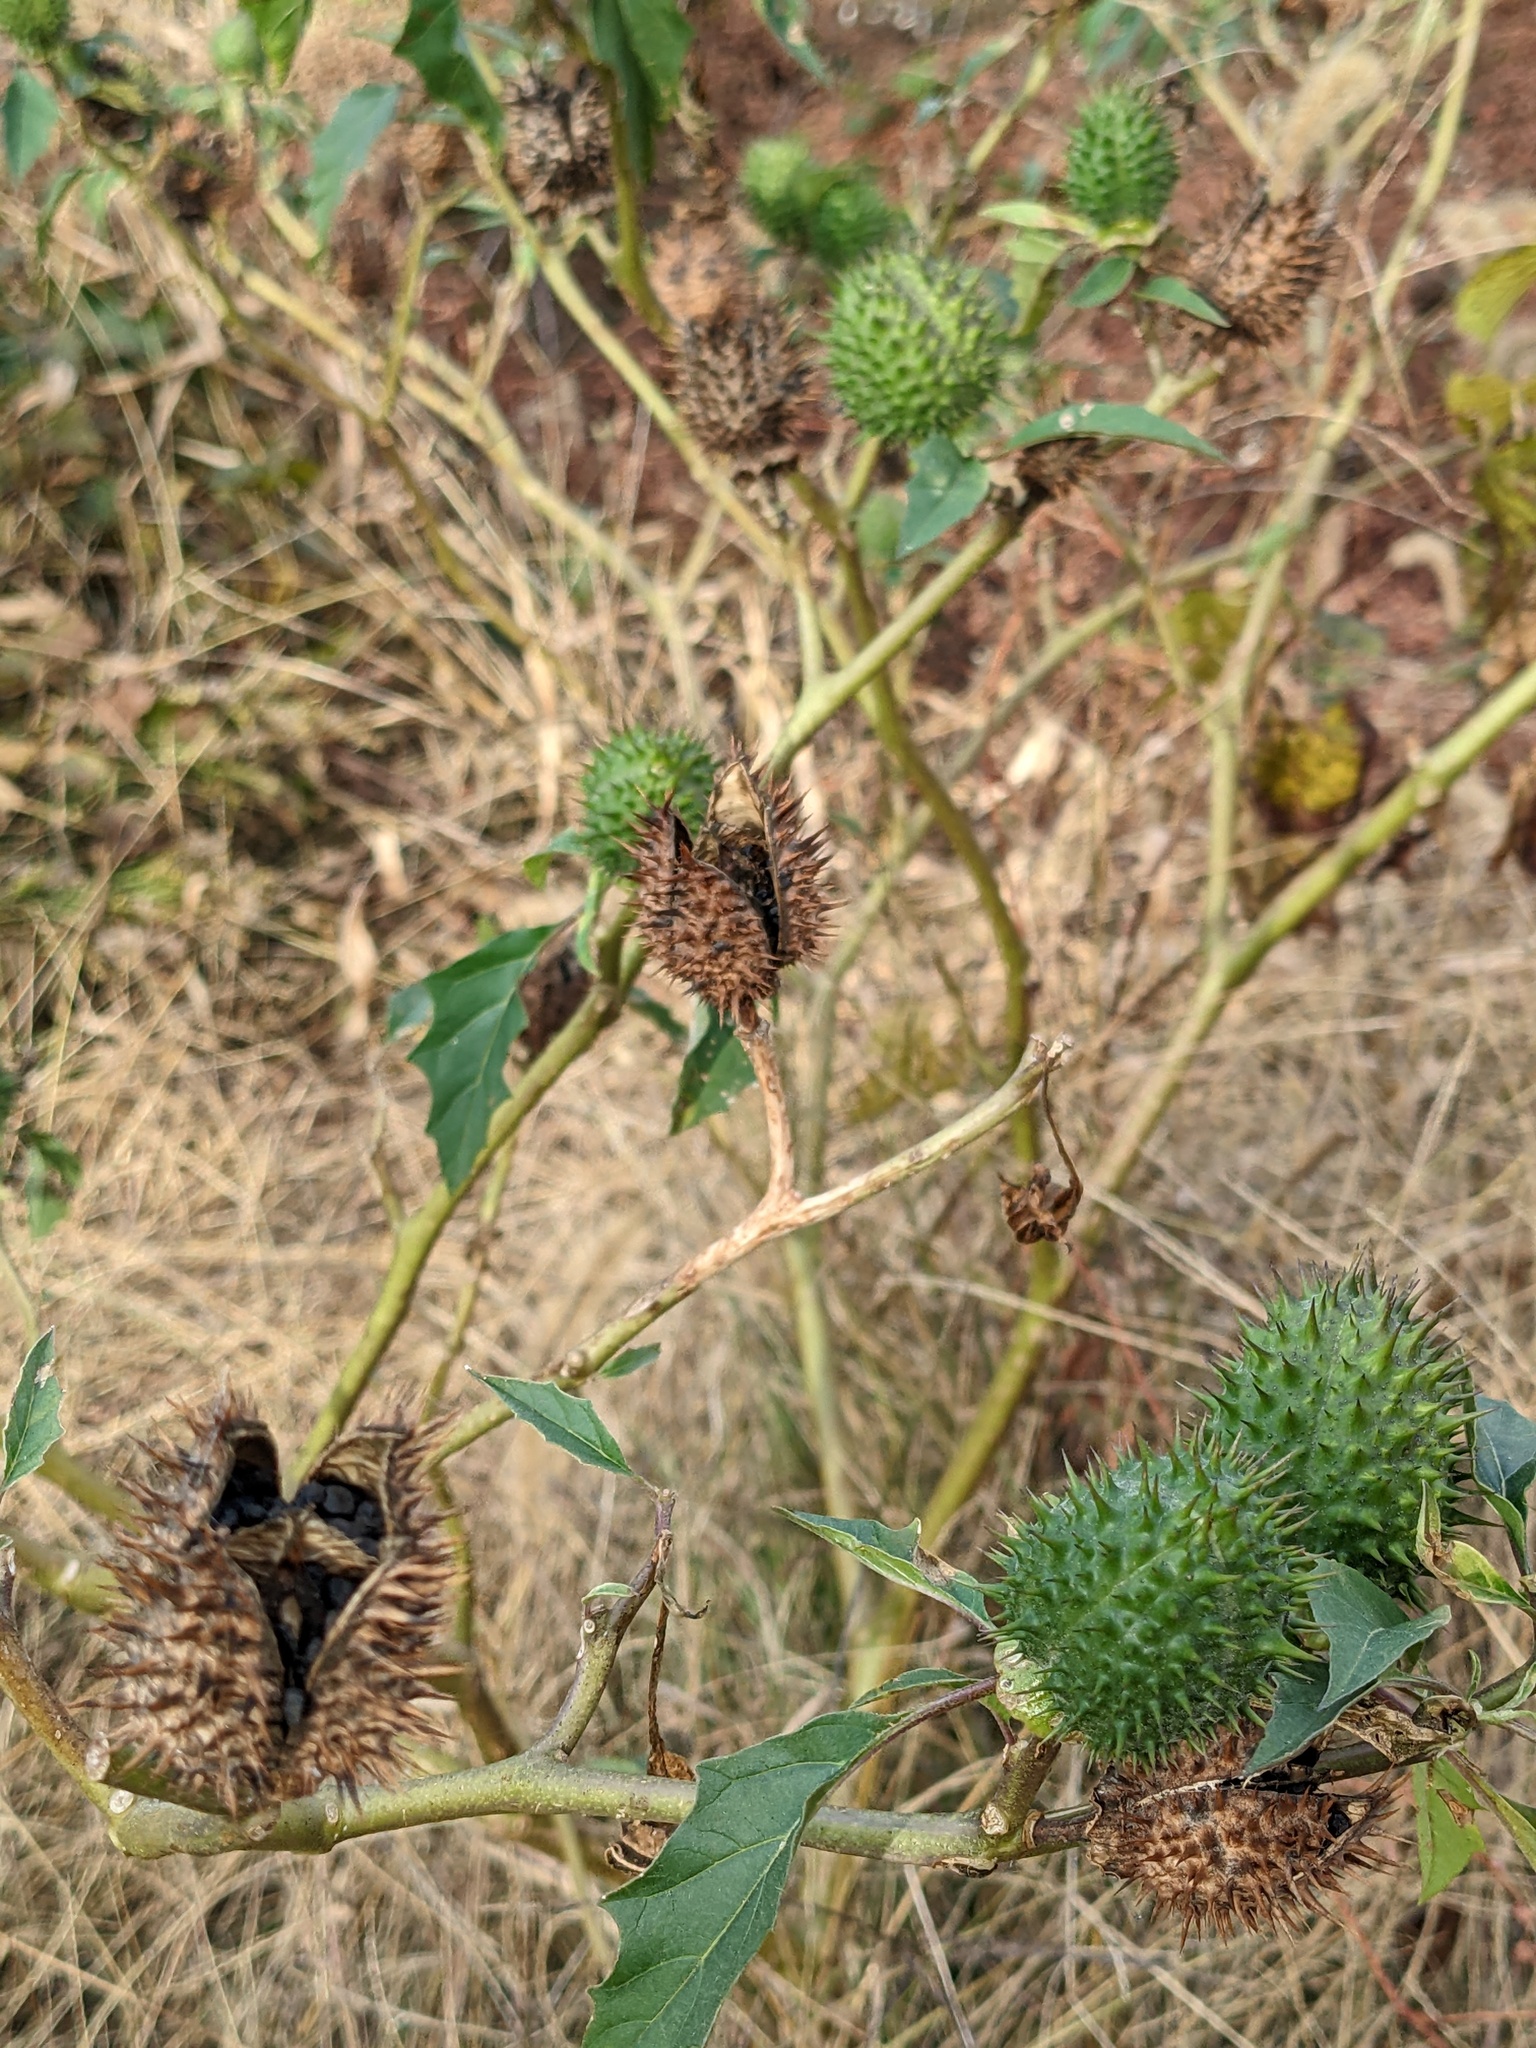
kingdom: Plantae
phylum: Tracheophyta
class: Magnoliopsida
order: Solanales
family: Solanaceae
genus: Datura
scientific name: Datura stramonium
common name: Thorn-apple
